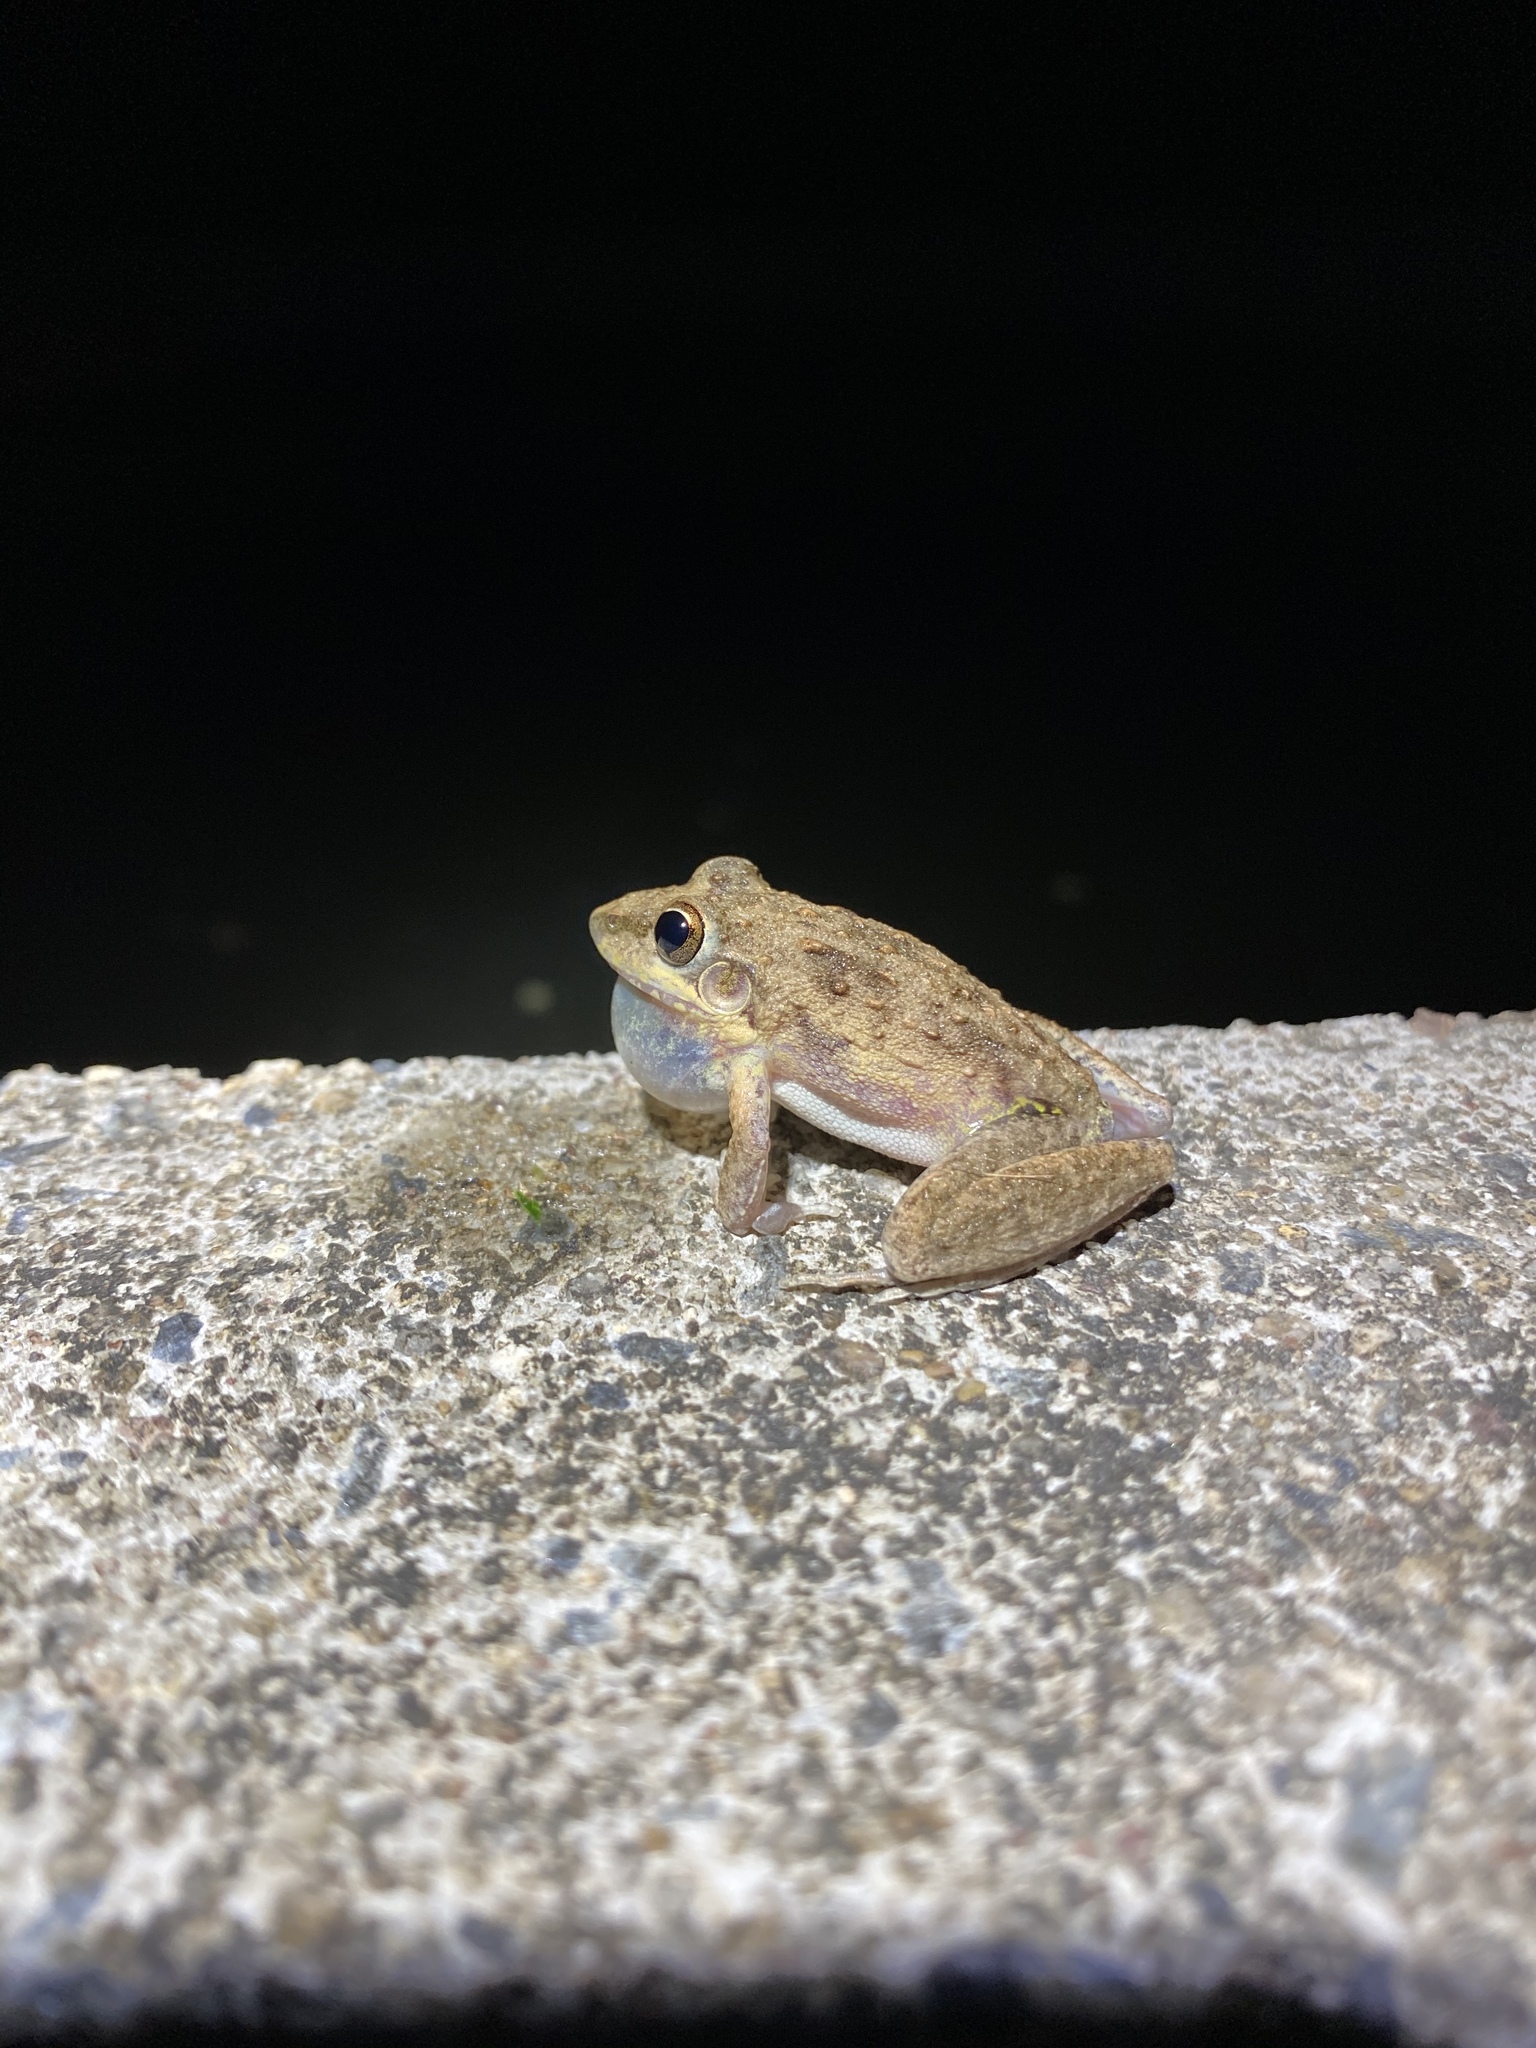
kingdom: Animalia
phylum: Chordata
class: Amphibia
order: Anura
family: Pelodryadidae
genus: Litoria
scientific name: Litoria inermis
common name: Bumpy rocket frog
